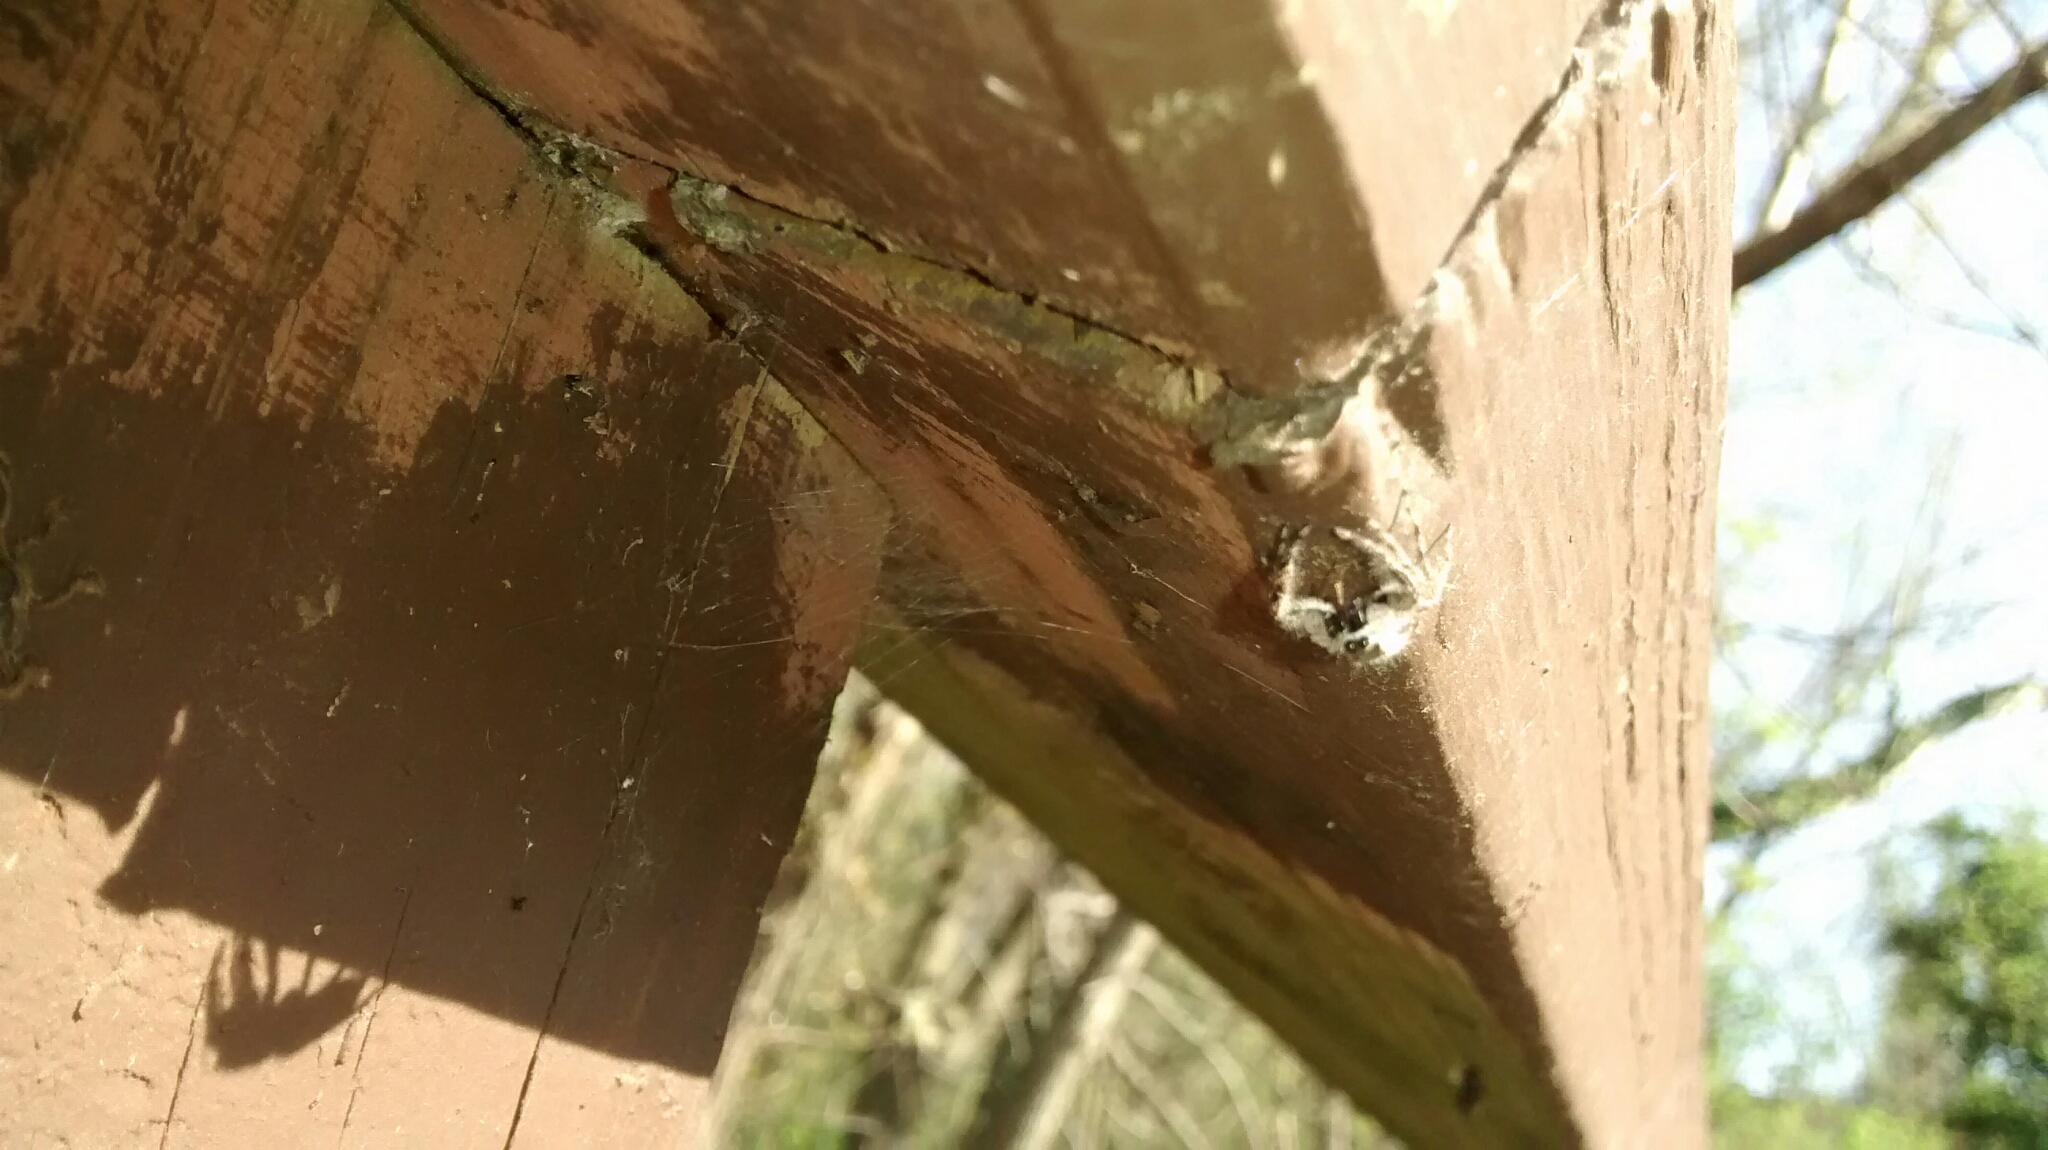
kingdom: Animalia
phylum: Arthropoda
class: Arachnida
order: Araneae
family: Salticidae
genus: Platycryptus
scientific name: Platycryptus undatus
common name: Tan jumping spider
